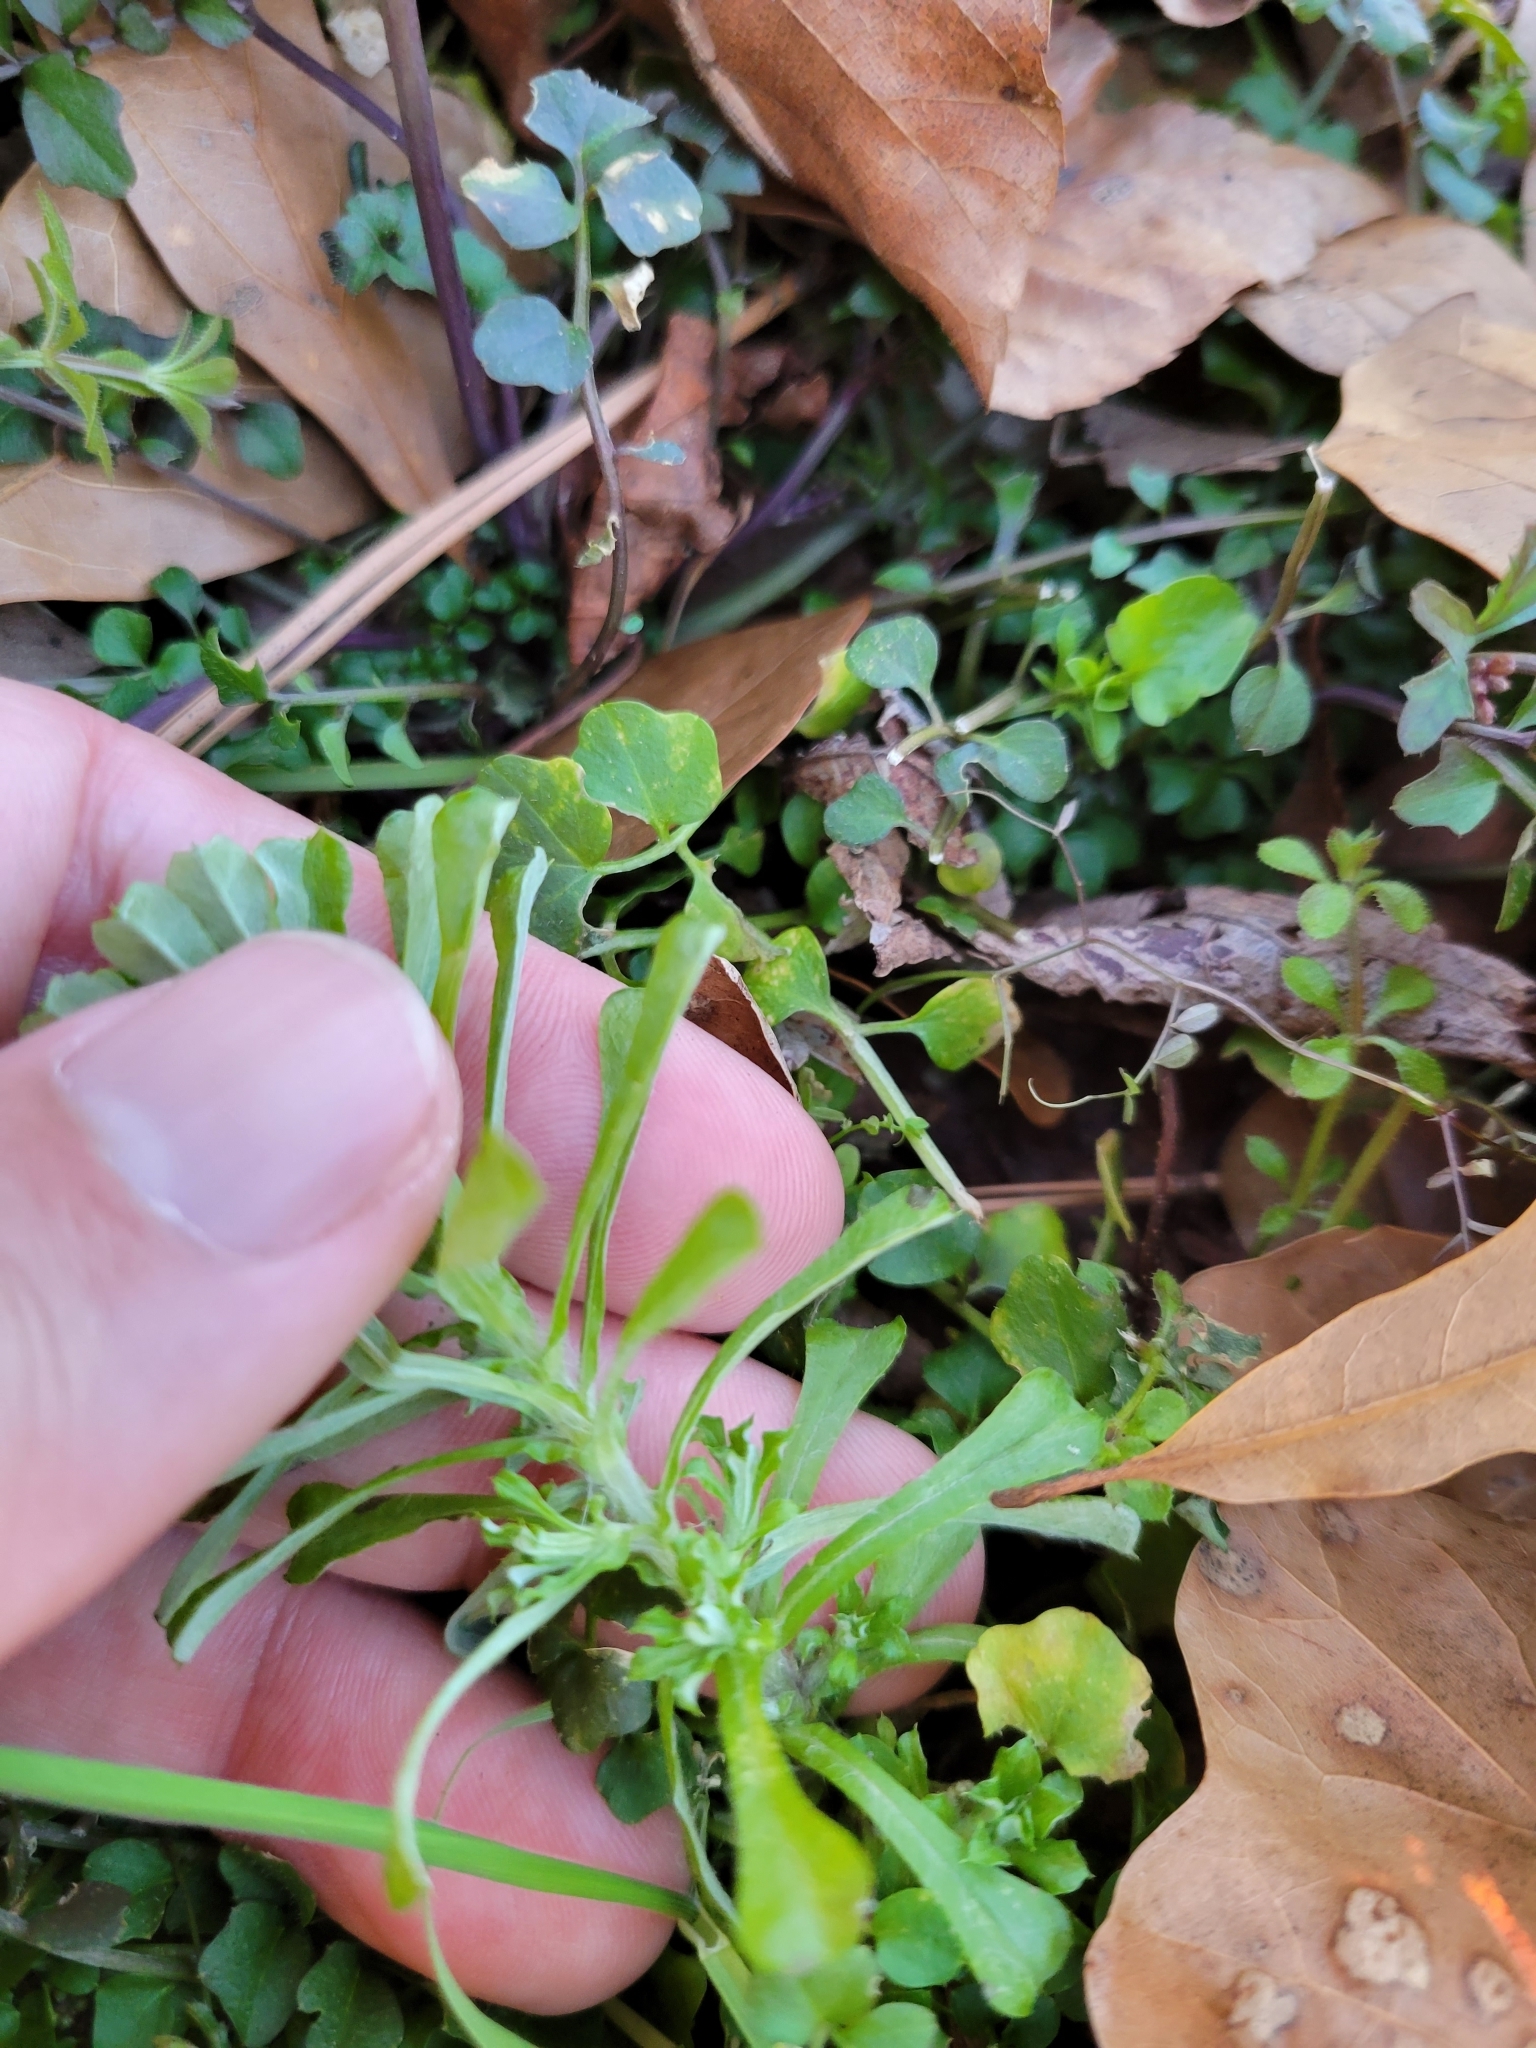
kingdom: Plantae
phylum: Tracheophyta
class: Magnoliopsida
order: Asterales
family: Asteraceae
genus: Facelis
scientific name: Facelis retusa
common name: Annual trampweed
